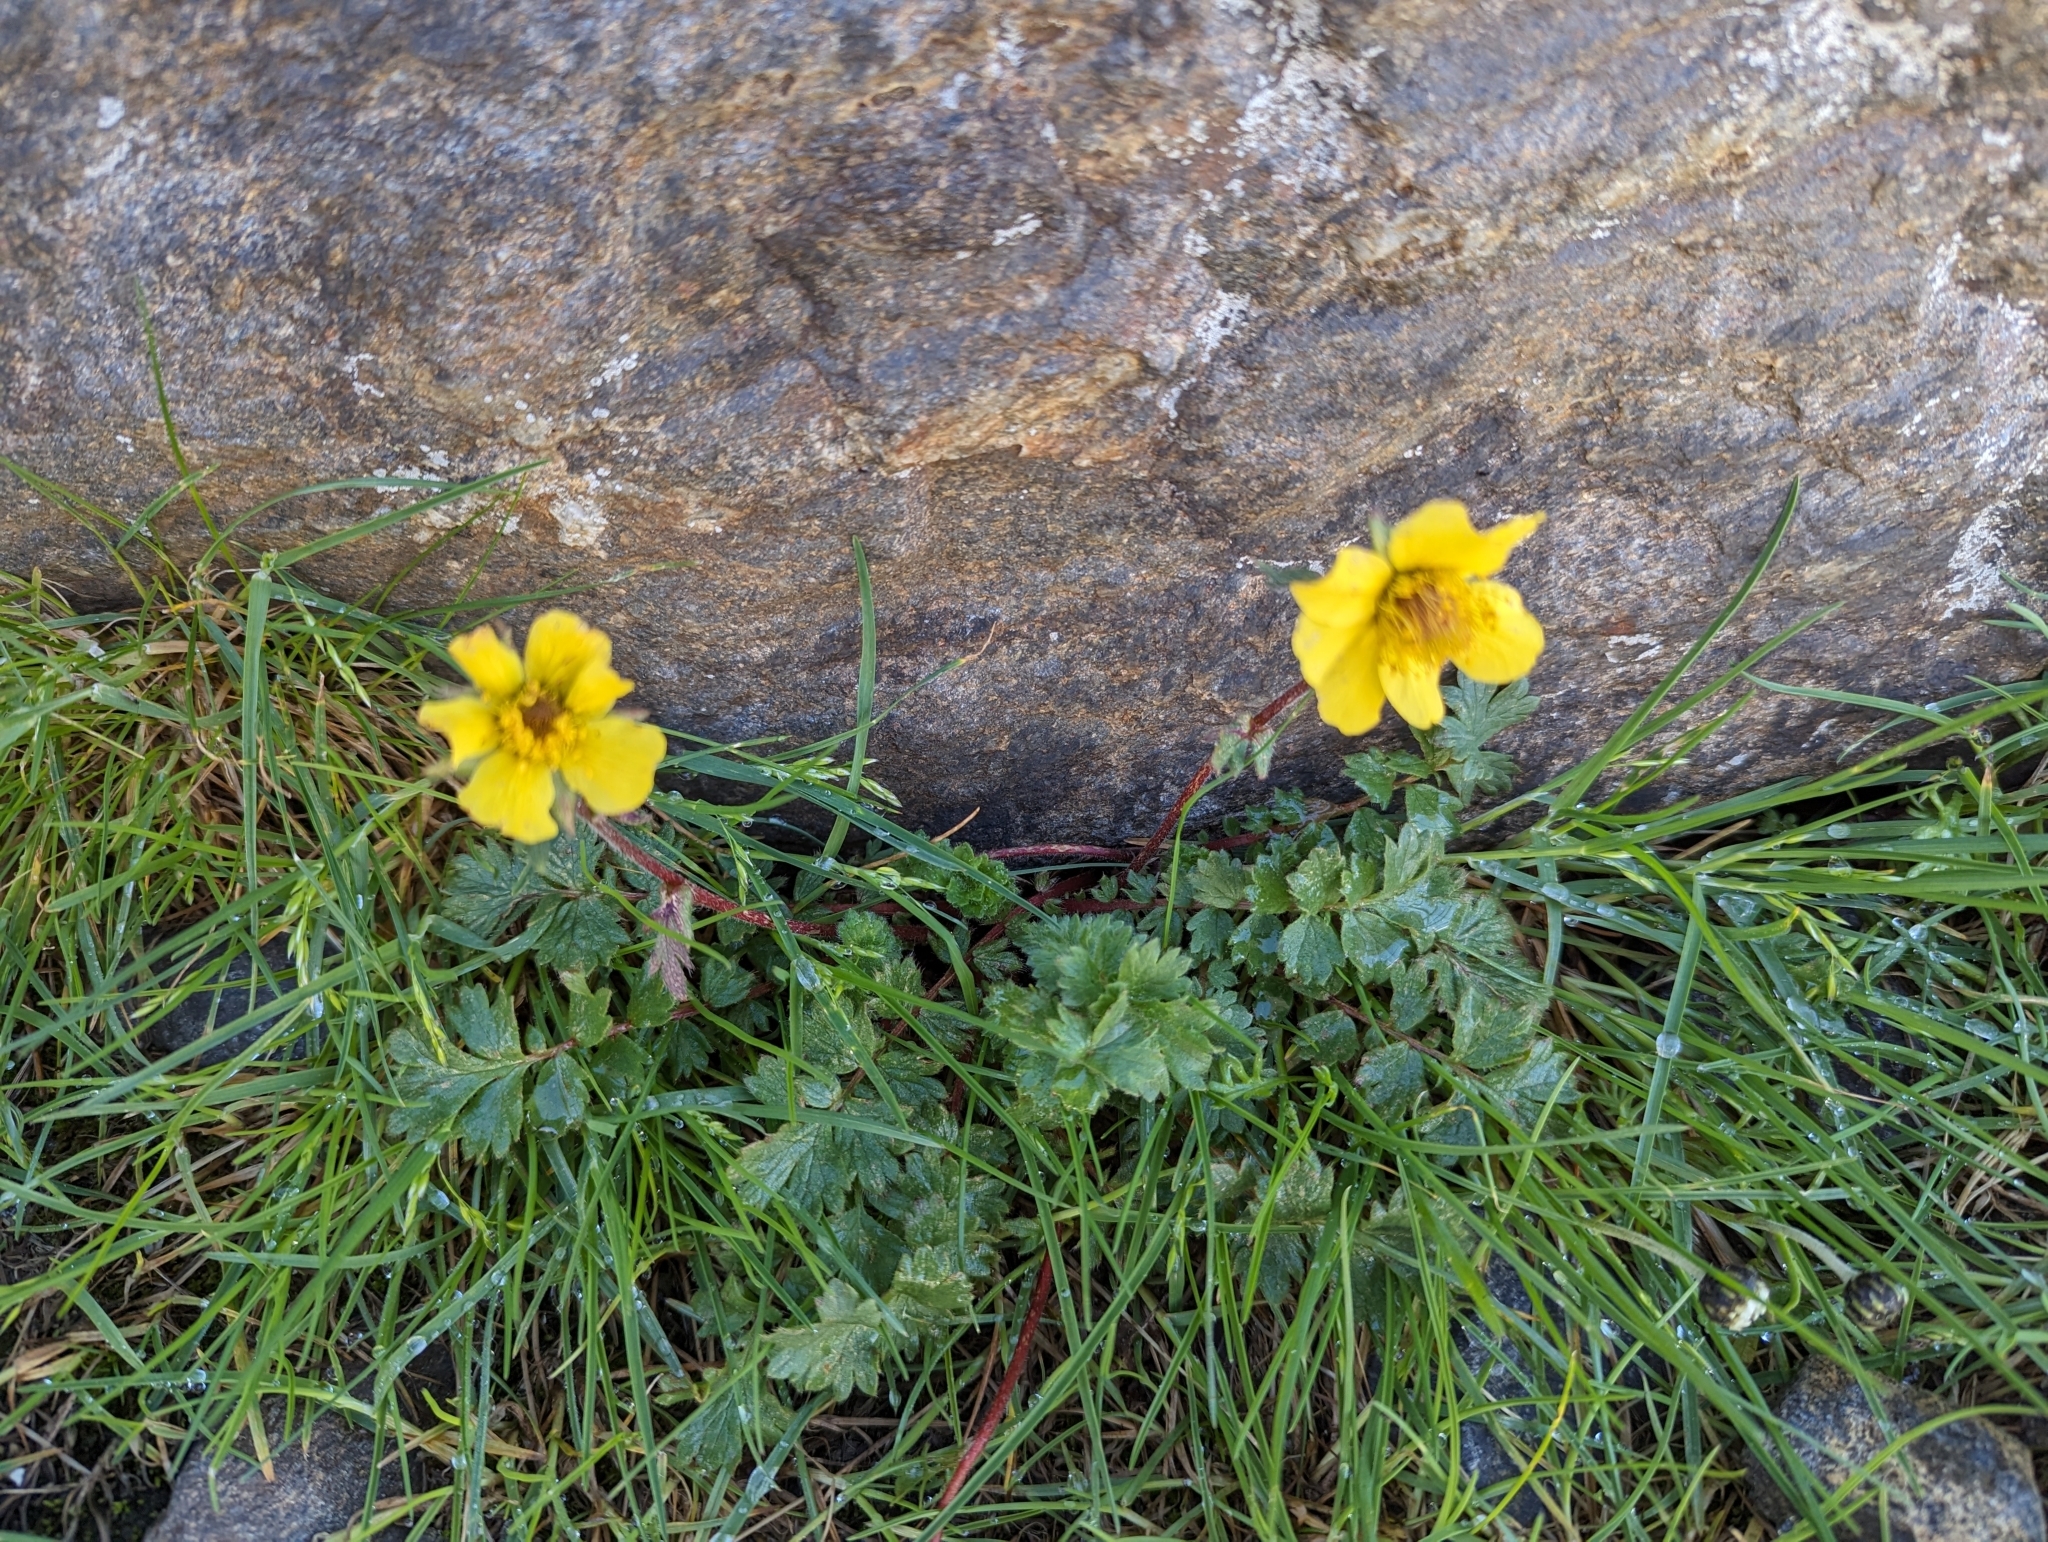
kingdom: Plantae
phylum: Tracheophyta
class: Magnoliopsida
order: Rosales
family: Rosaceae
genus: Geum
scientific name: Geum reptans
